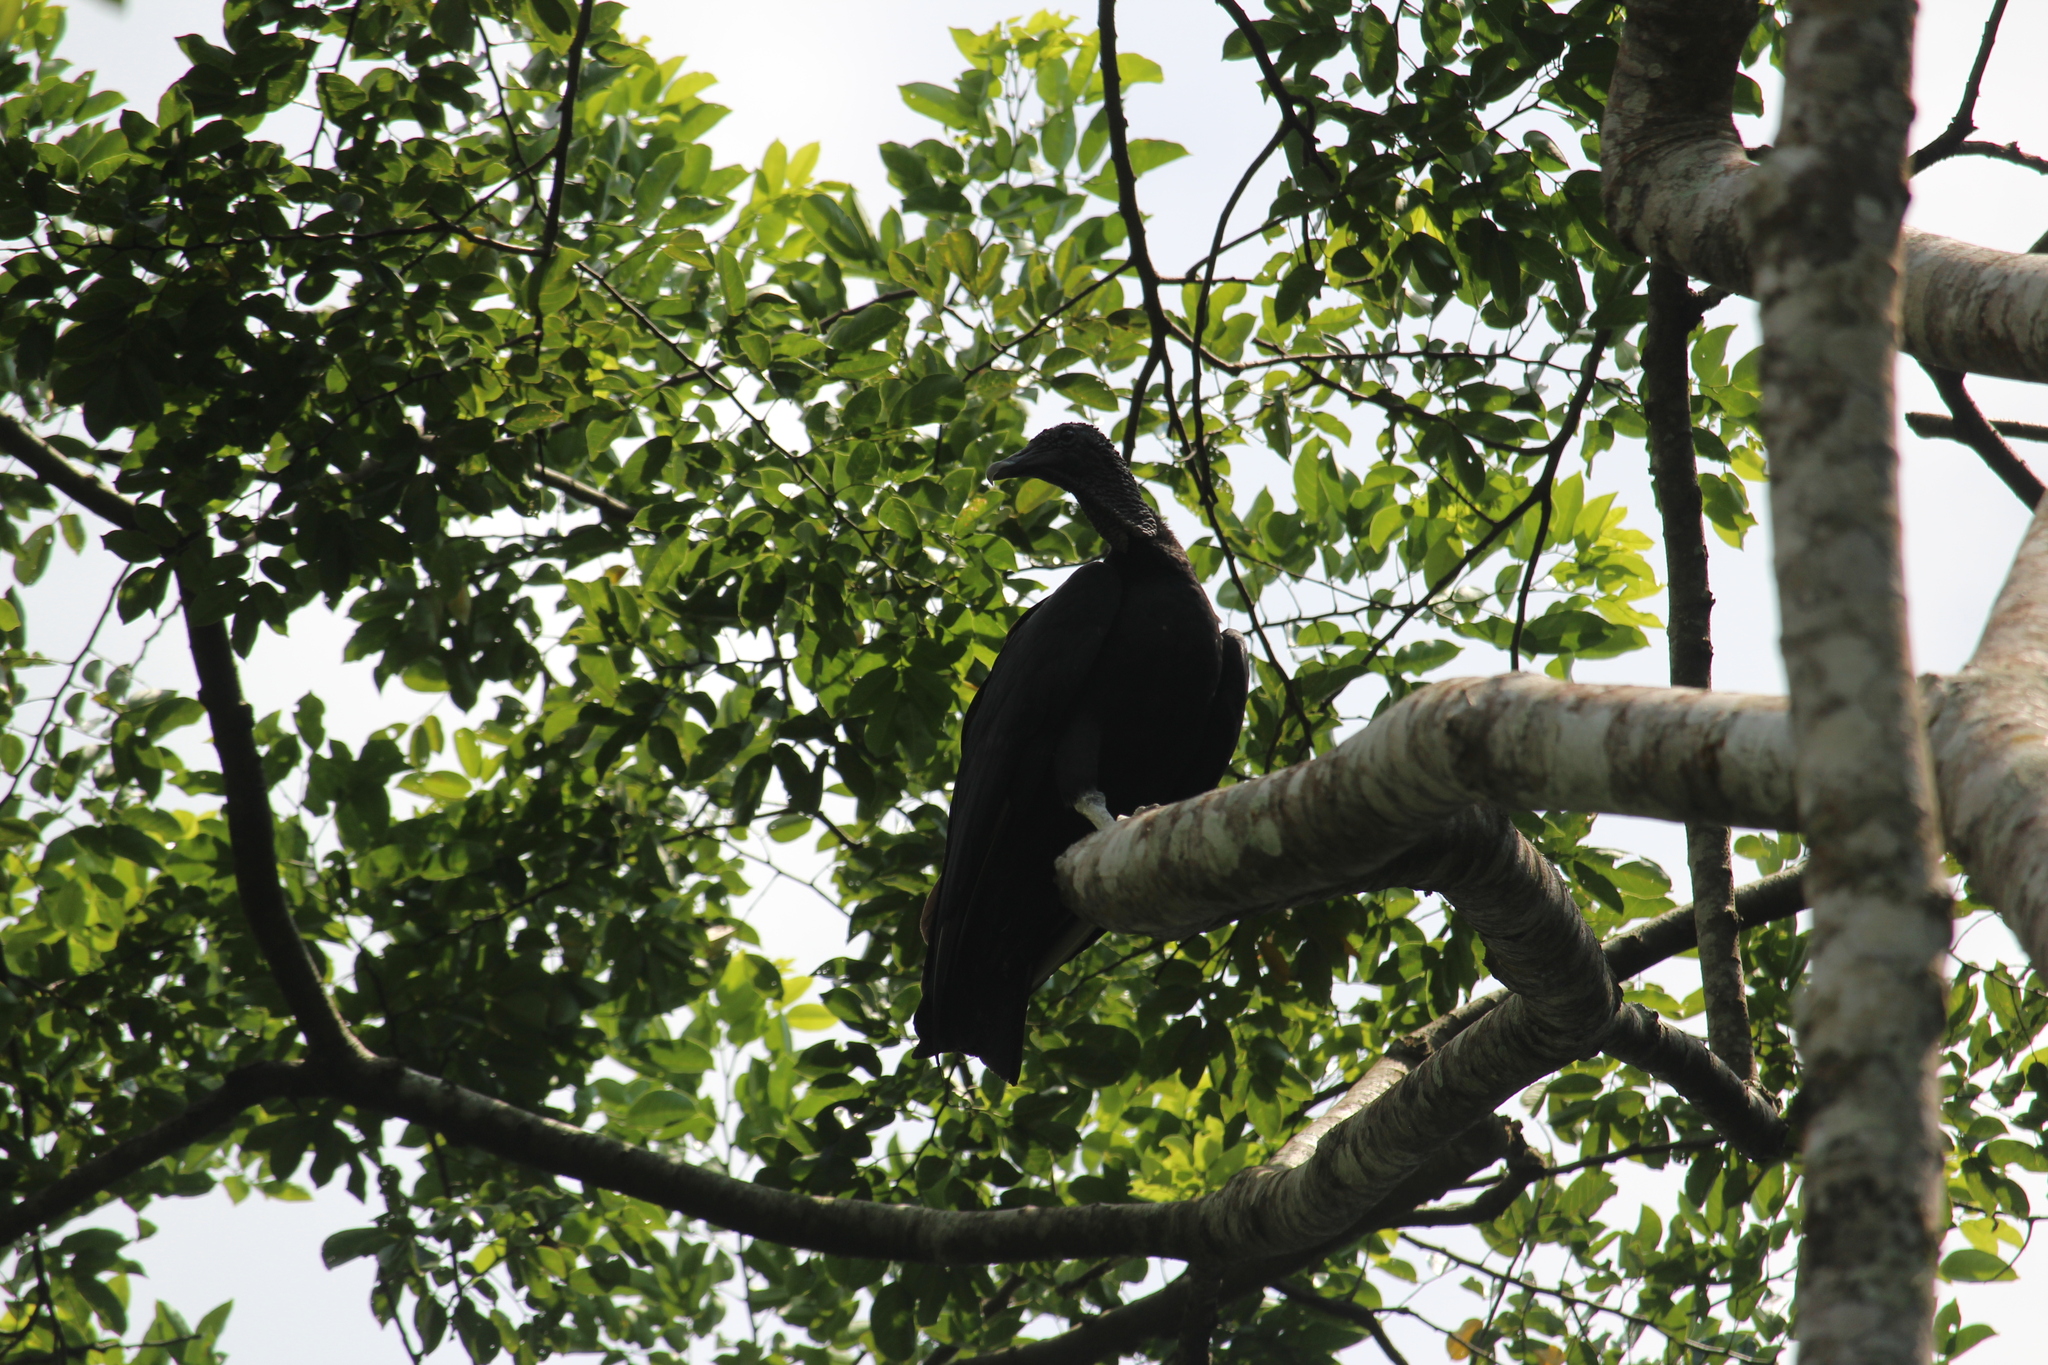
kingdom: Animalia
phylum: Chordata
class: Aves
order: Accipitriformes
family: Cathartidae
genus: Coragyps
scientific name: Coragyps atratus
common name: Black vulture
